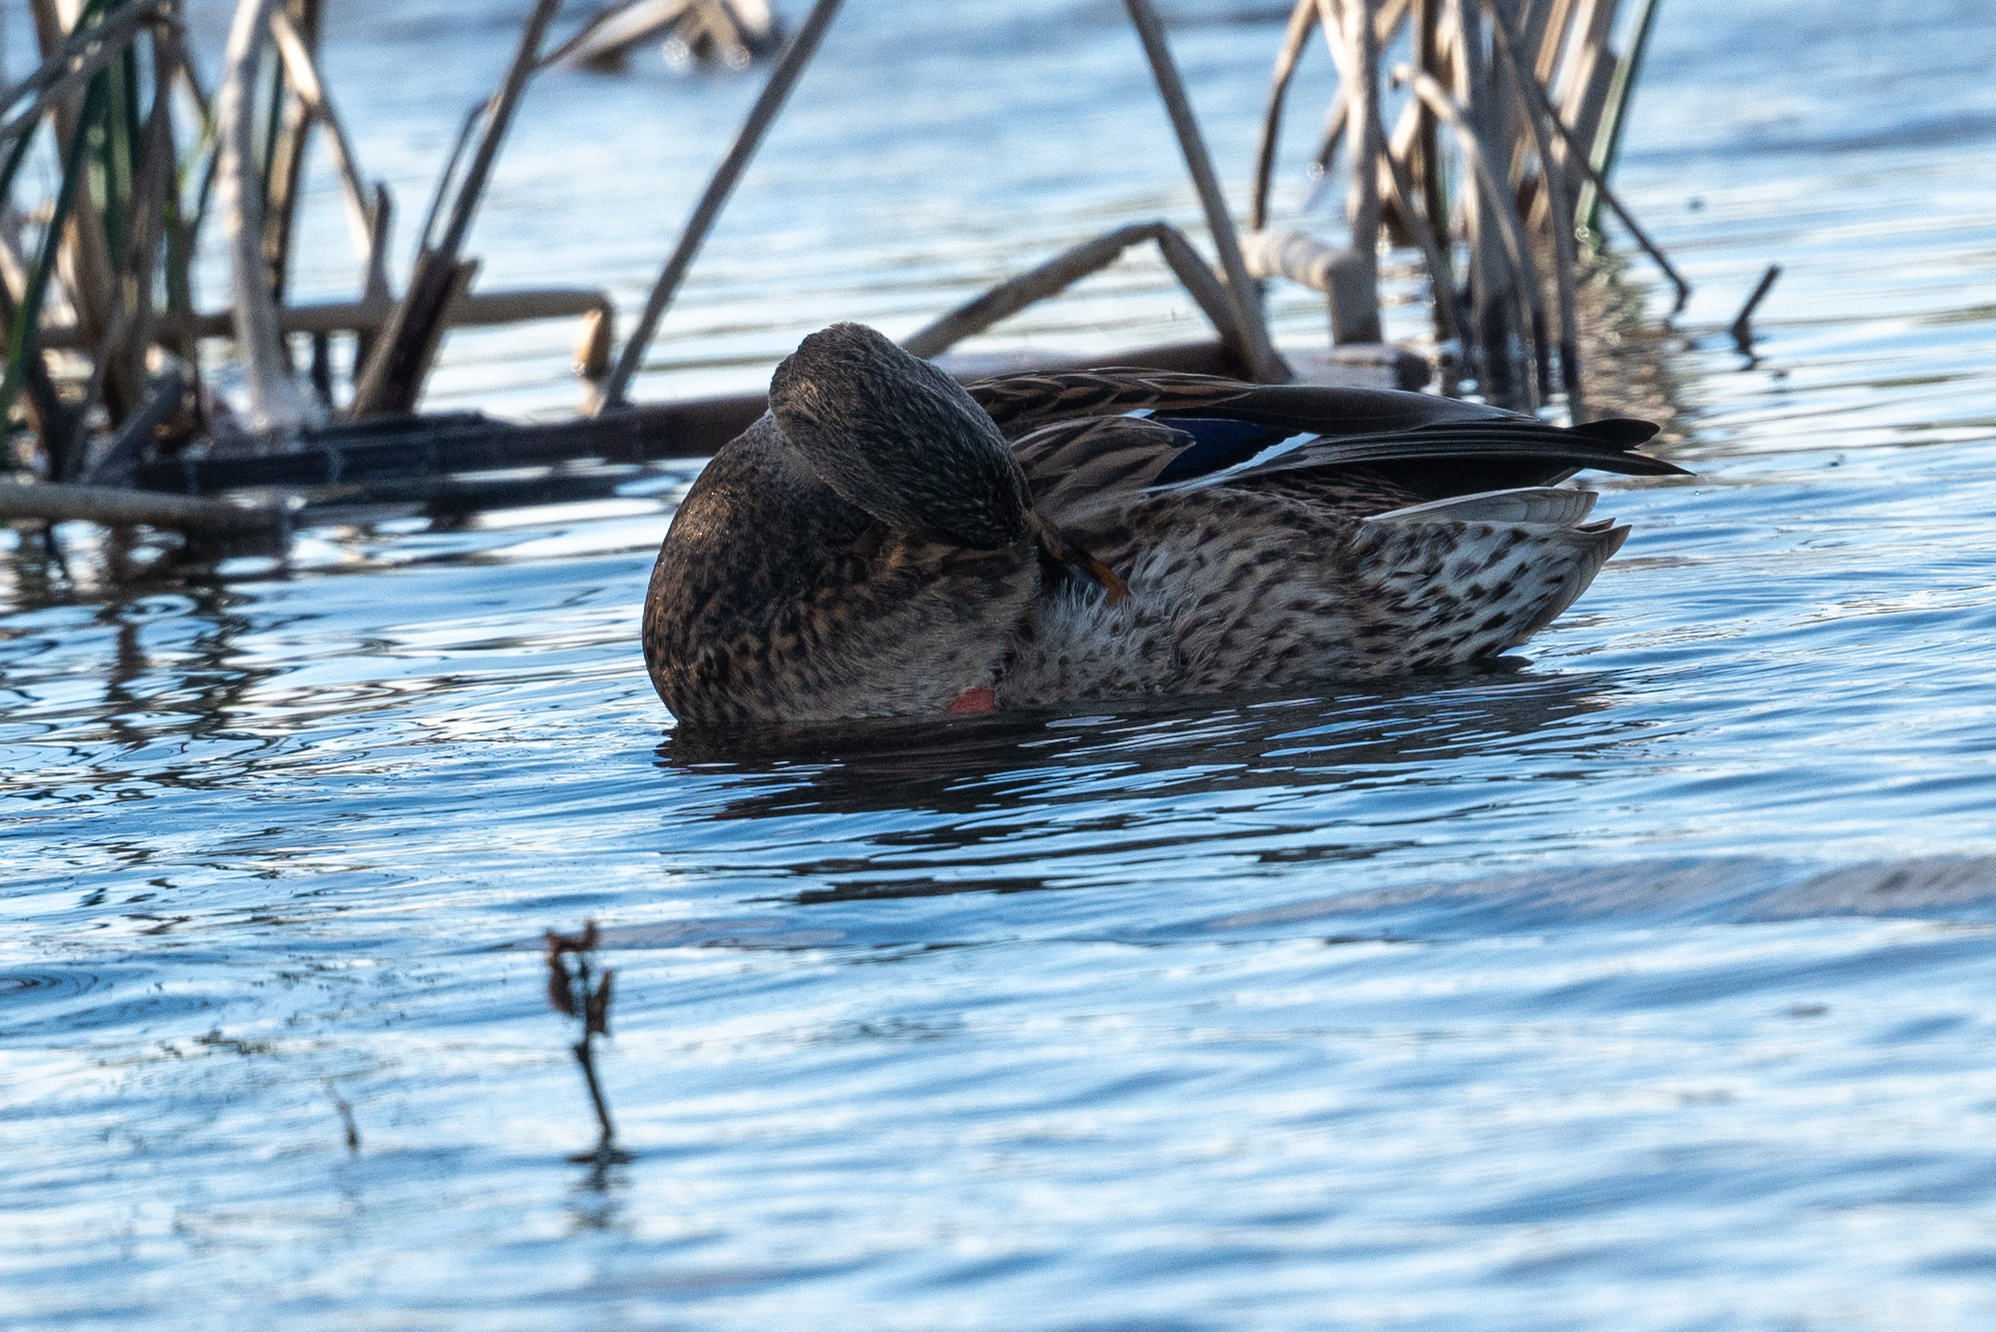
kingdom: Animalia
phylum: Chordata
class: Aves
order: Anseriformes
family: Anatidae
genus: Anas
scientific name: Anas platyrhynchos
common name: Mallard
